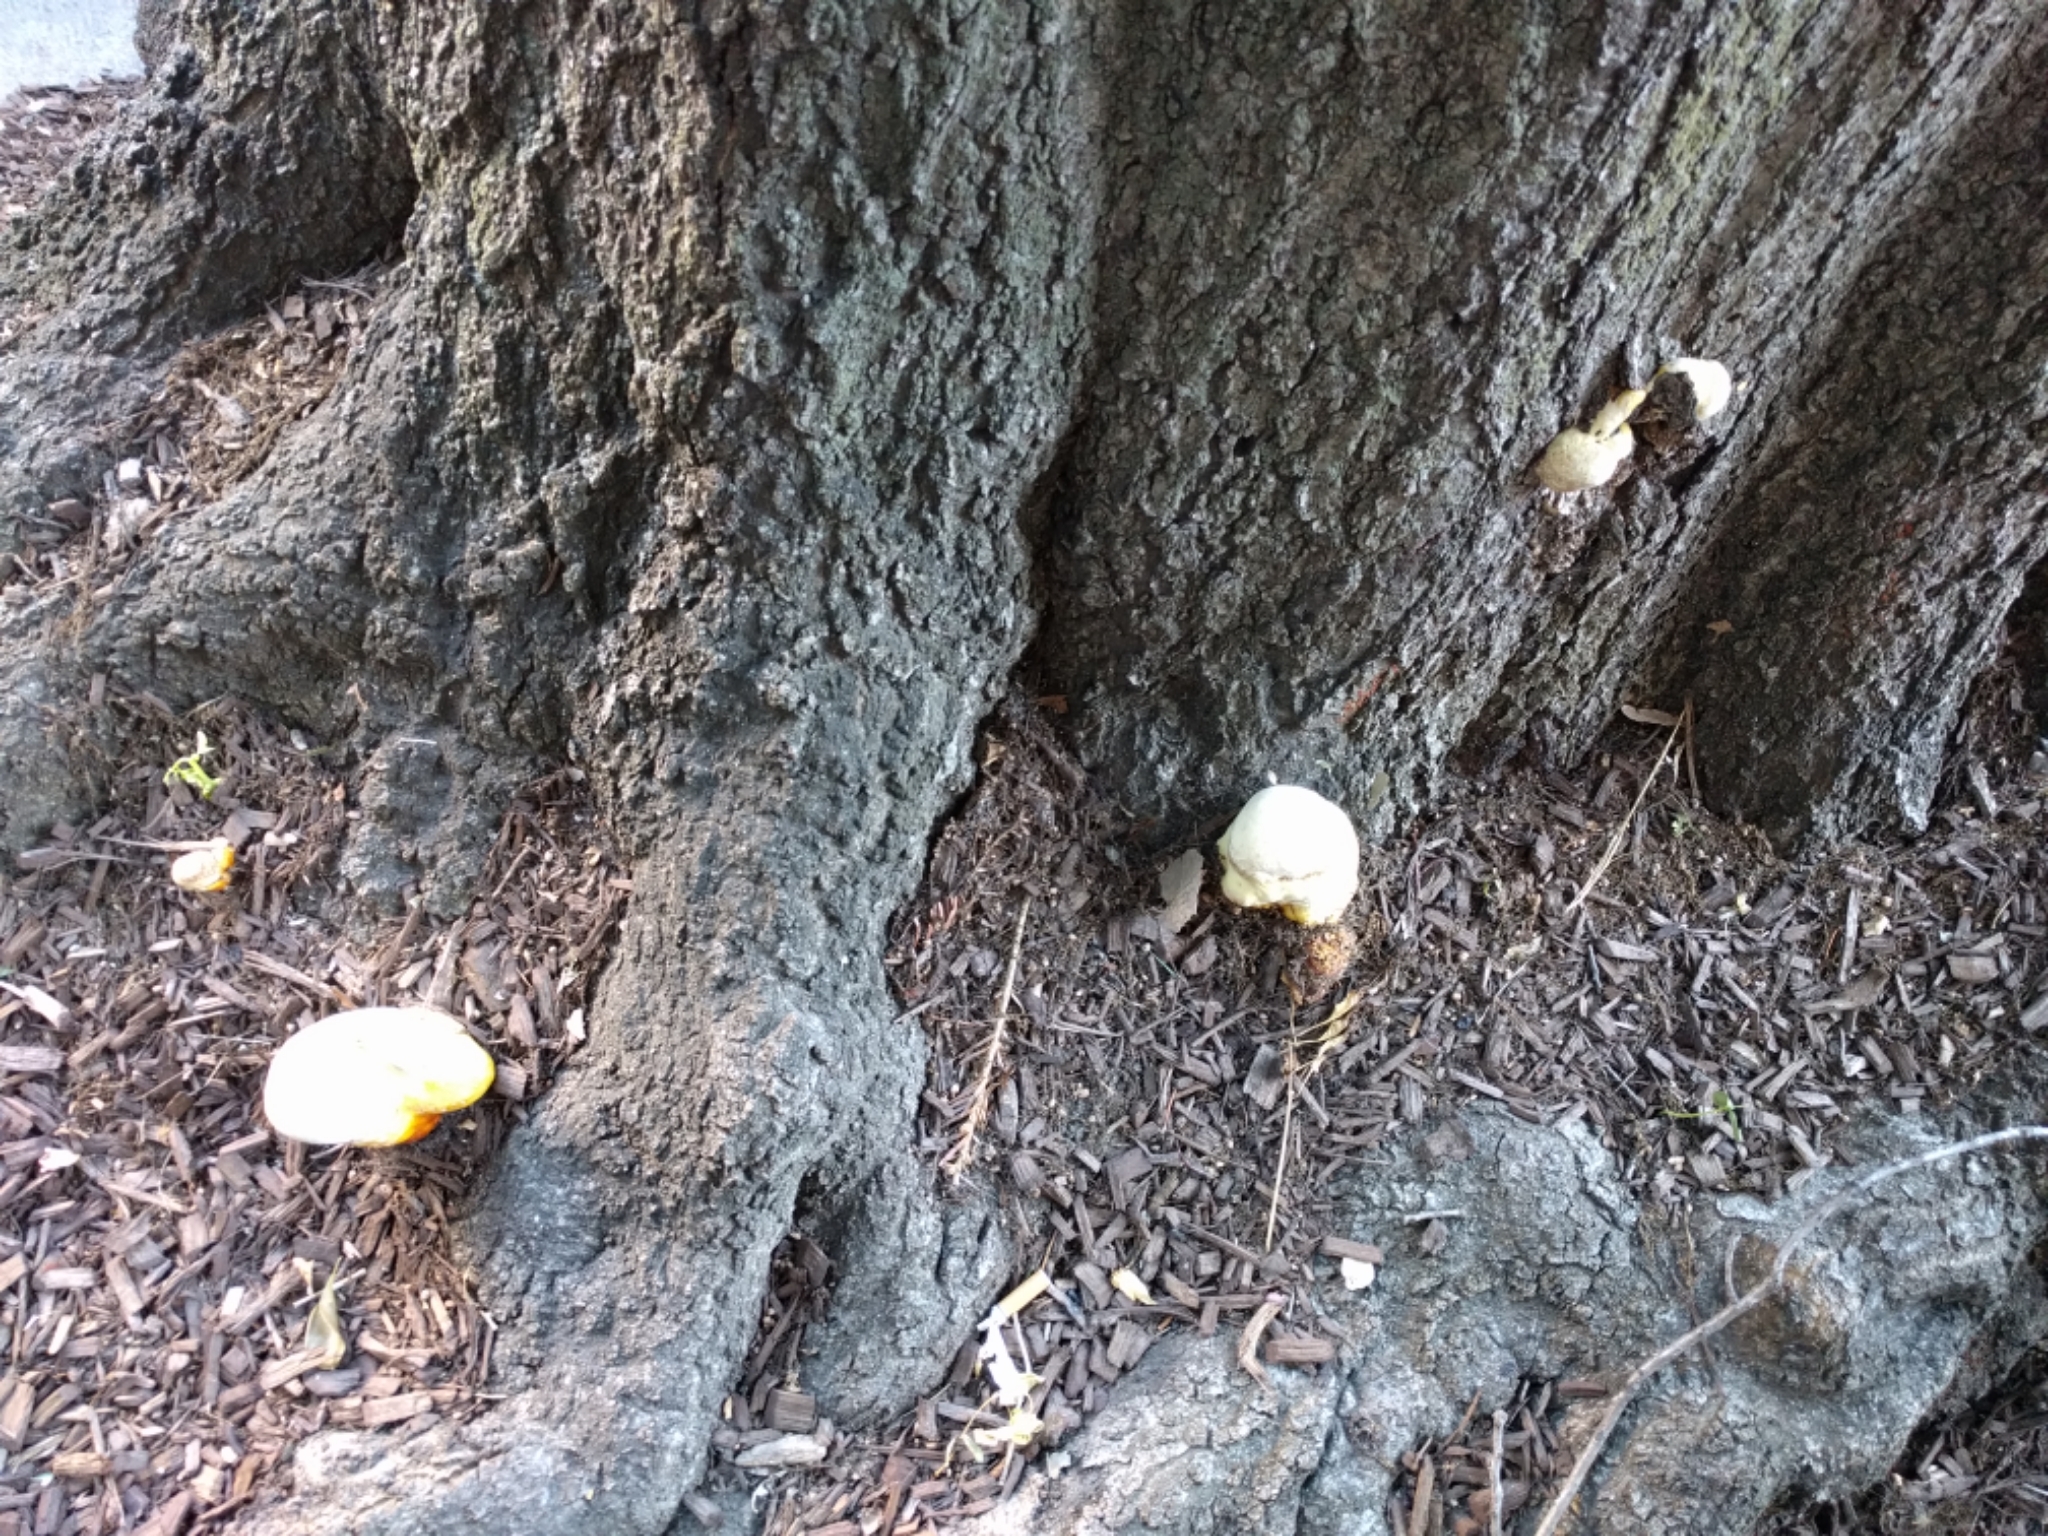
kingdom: Fungi
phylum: Basidiomycota
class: Agaricomycetes
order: Polyporales
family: Polyporaceae
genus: Ganoderma
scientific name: Ganoderma curtisii
